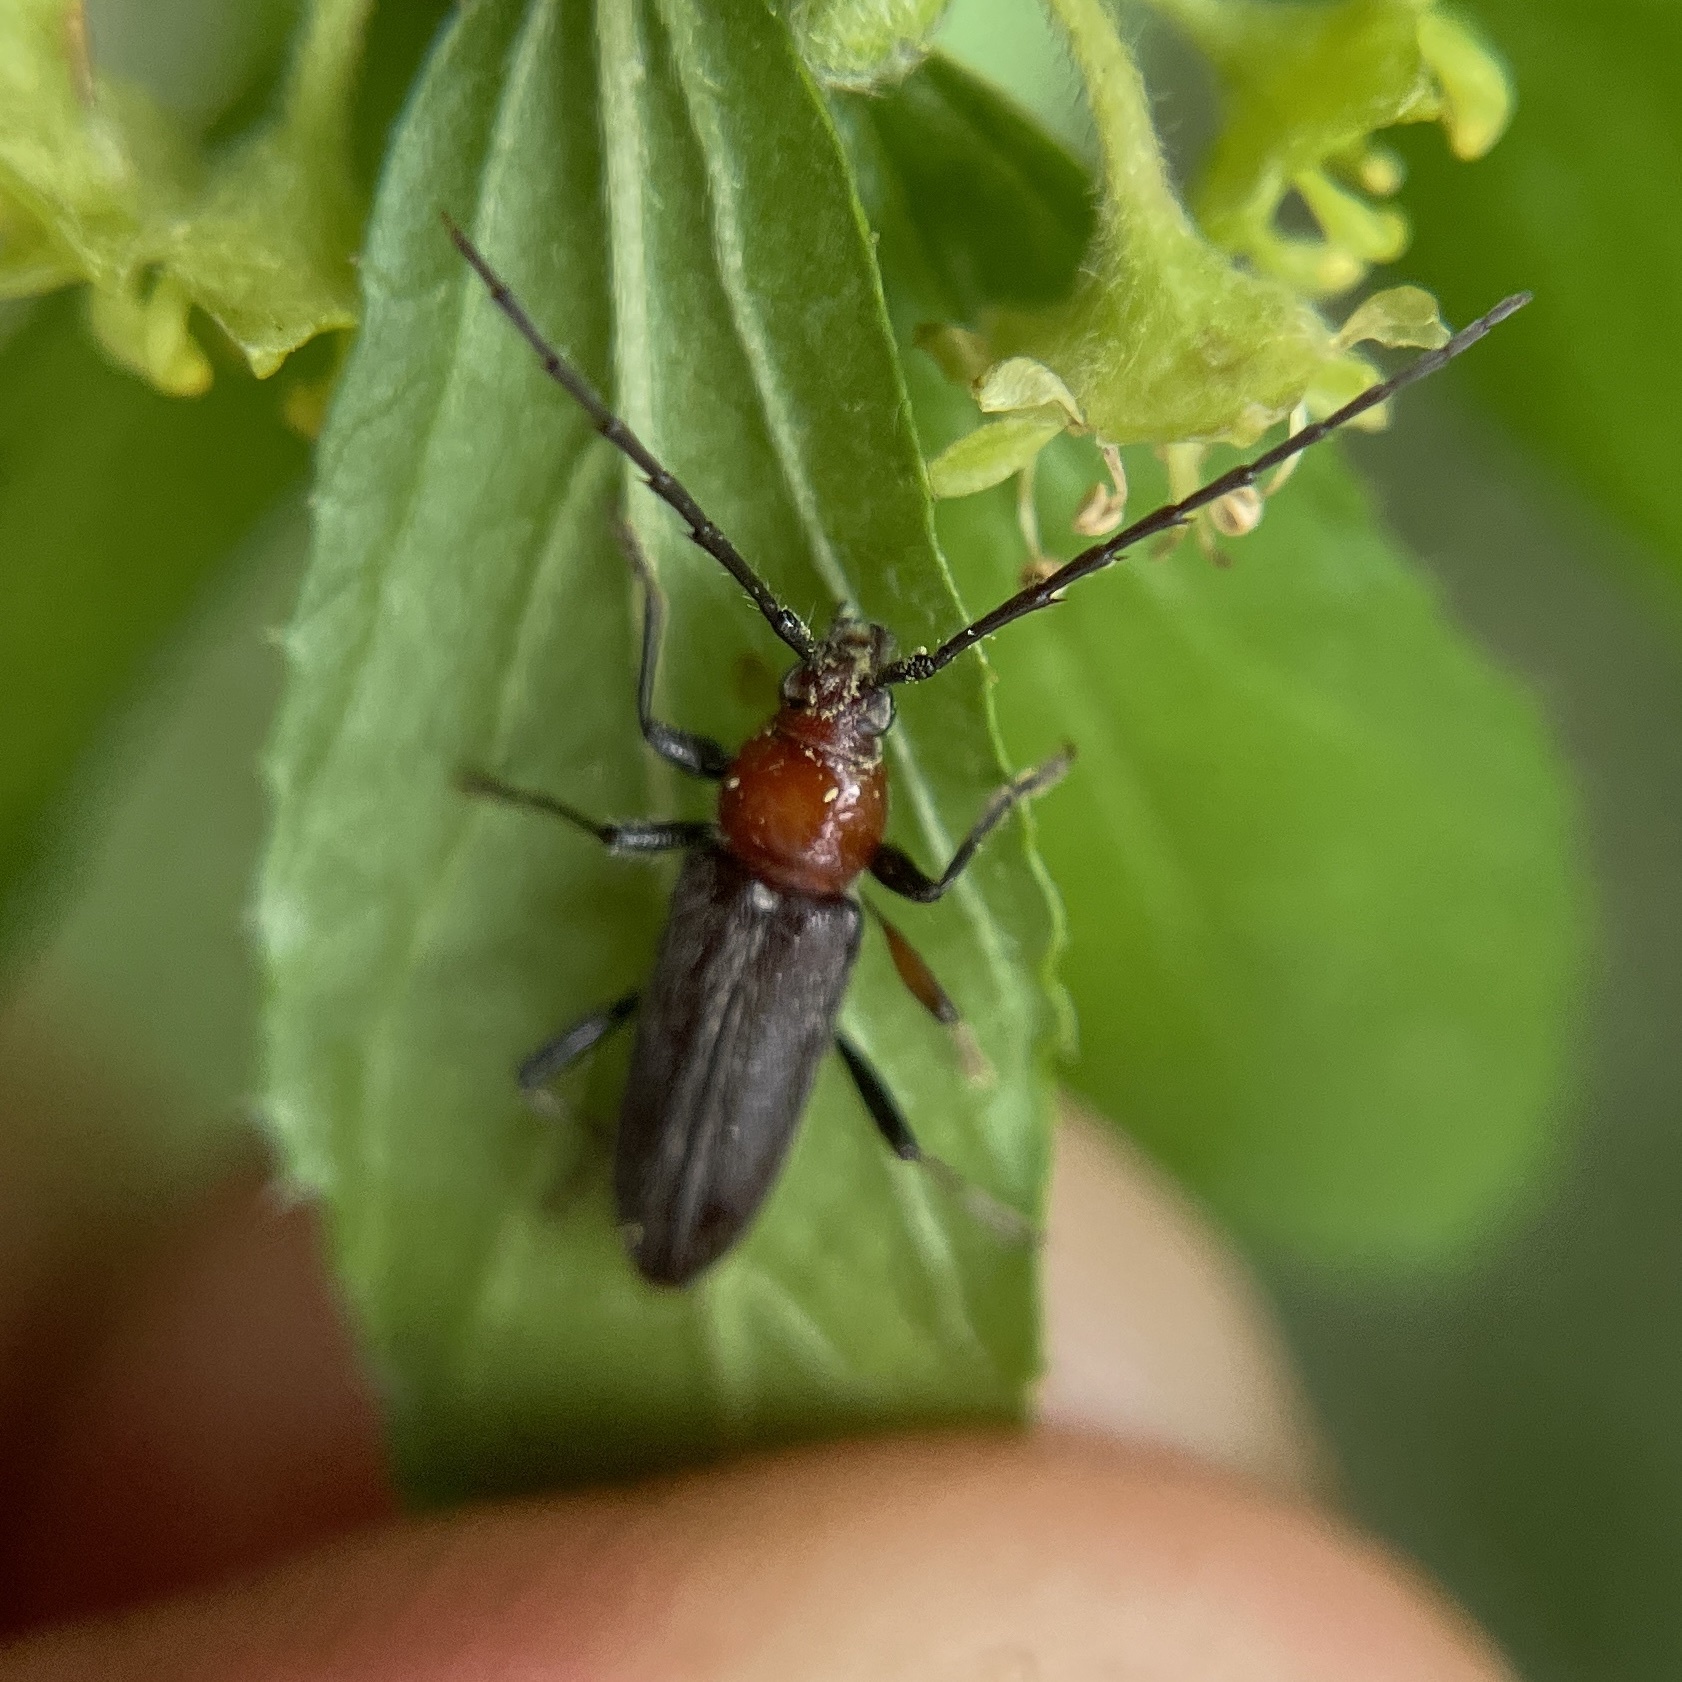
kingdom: Animalia
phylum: Arthropoda
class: Insecta
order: Coleoptera
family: Cerambycidae
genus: Stenosphenus
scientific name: Stenosphenus dolosus
